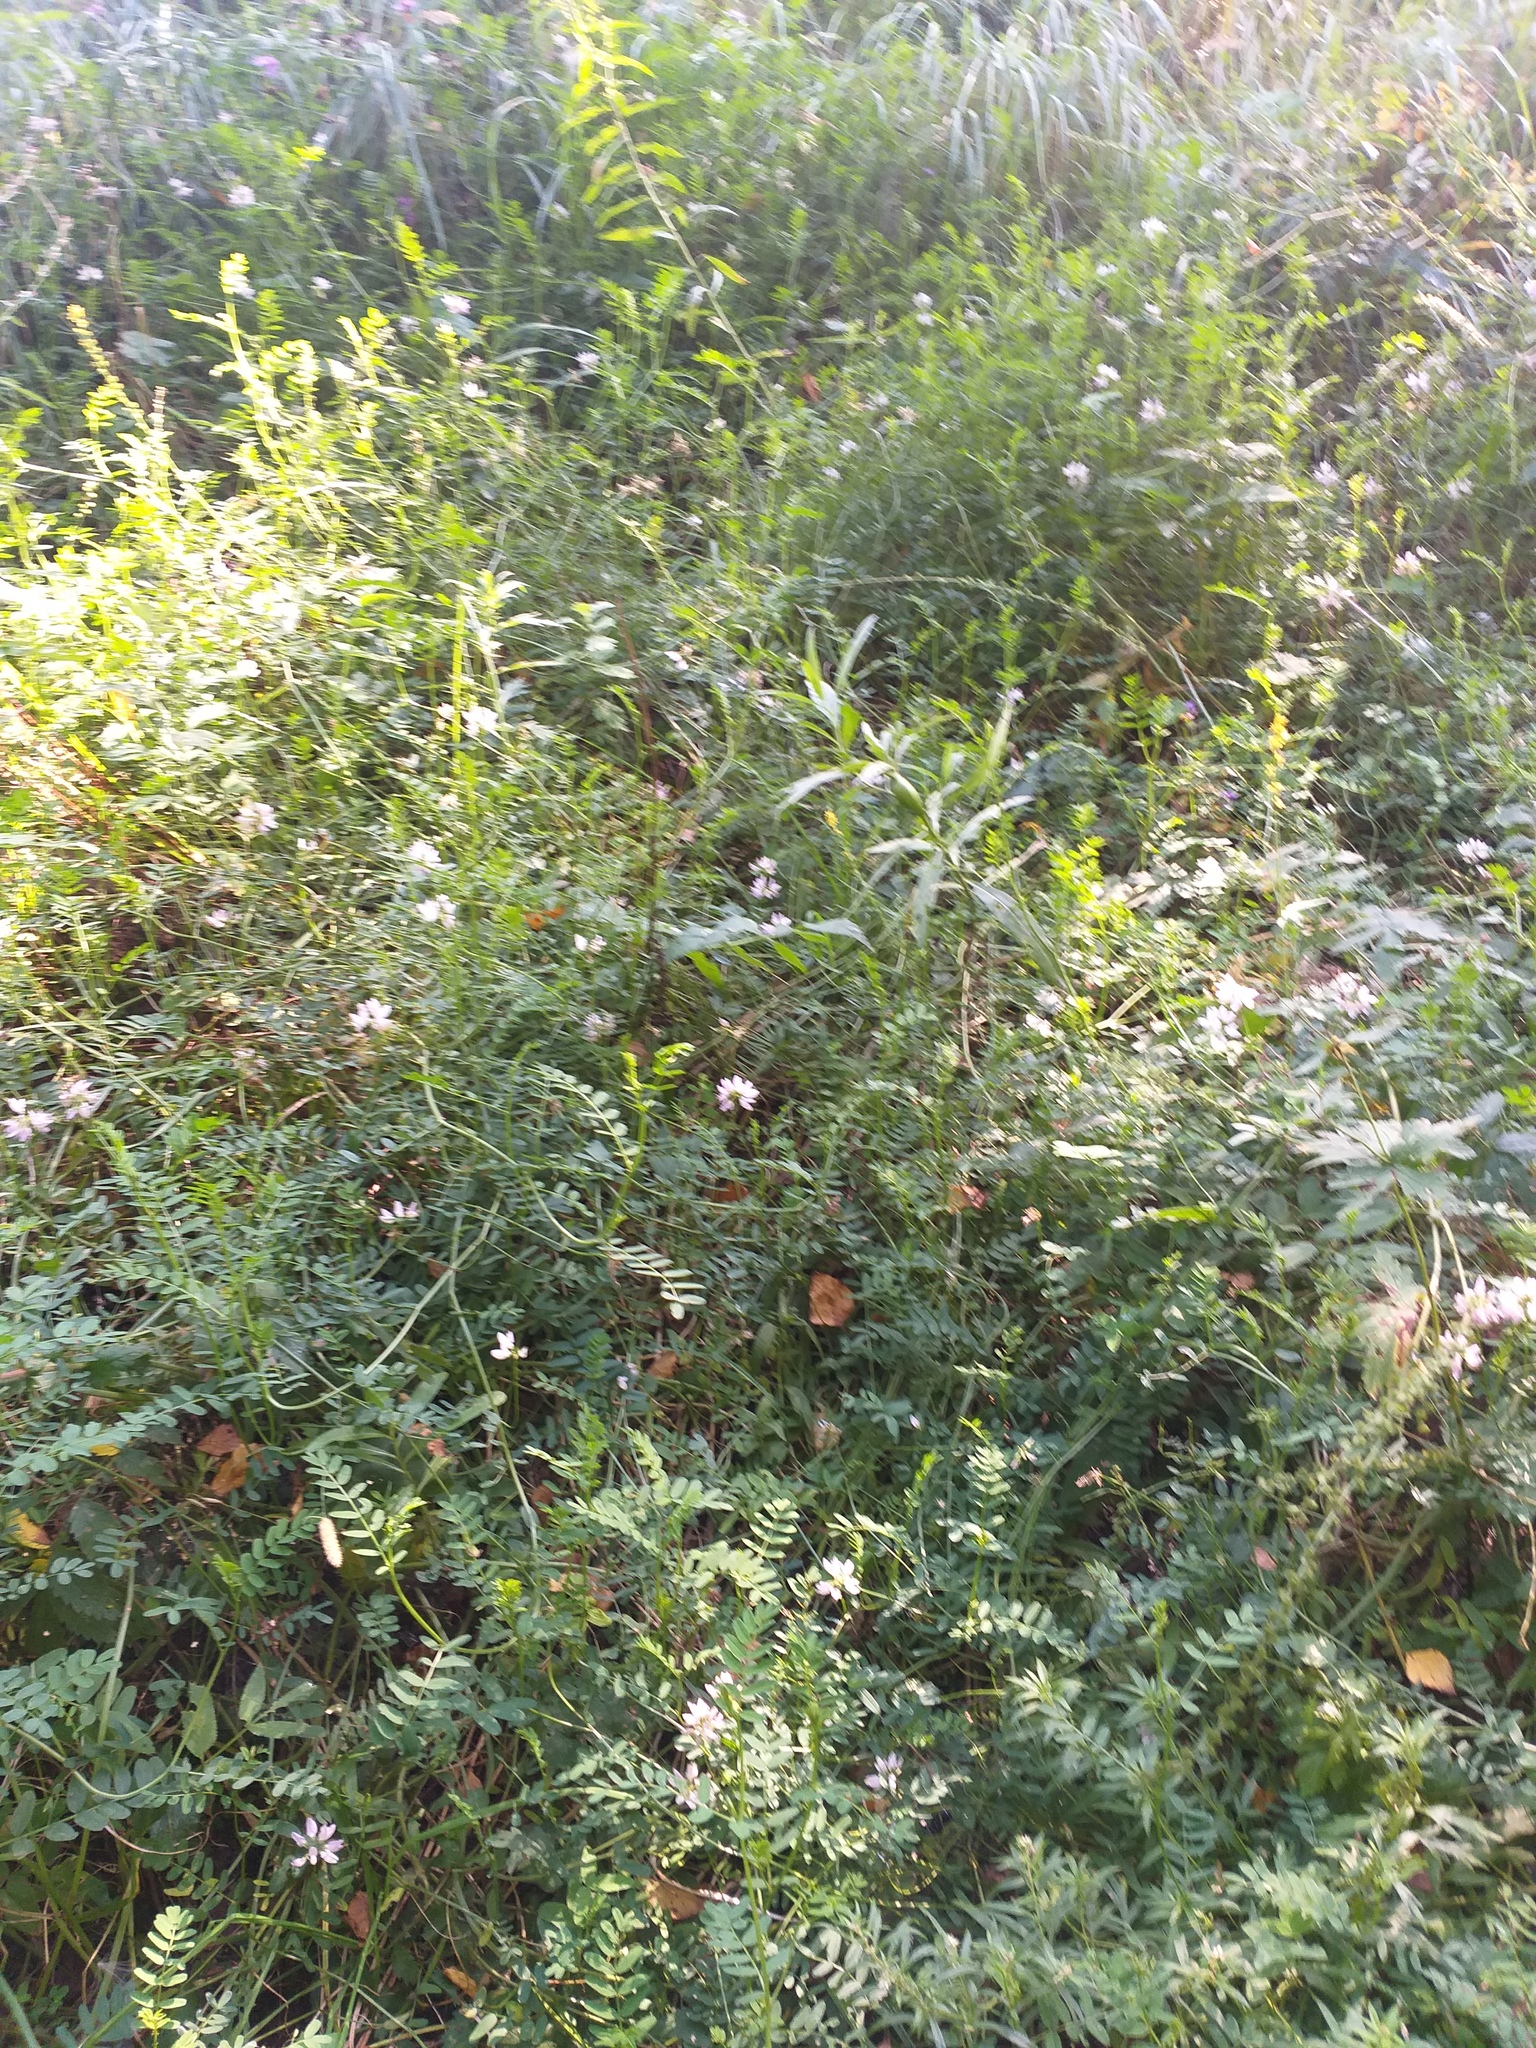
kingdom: Plantae
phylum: Tracheophyta
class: Magnoliopsida
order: Fabales
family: Fabaceae
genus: Coronilla
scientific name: Coronilla varia
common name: Crownvetch
